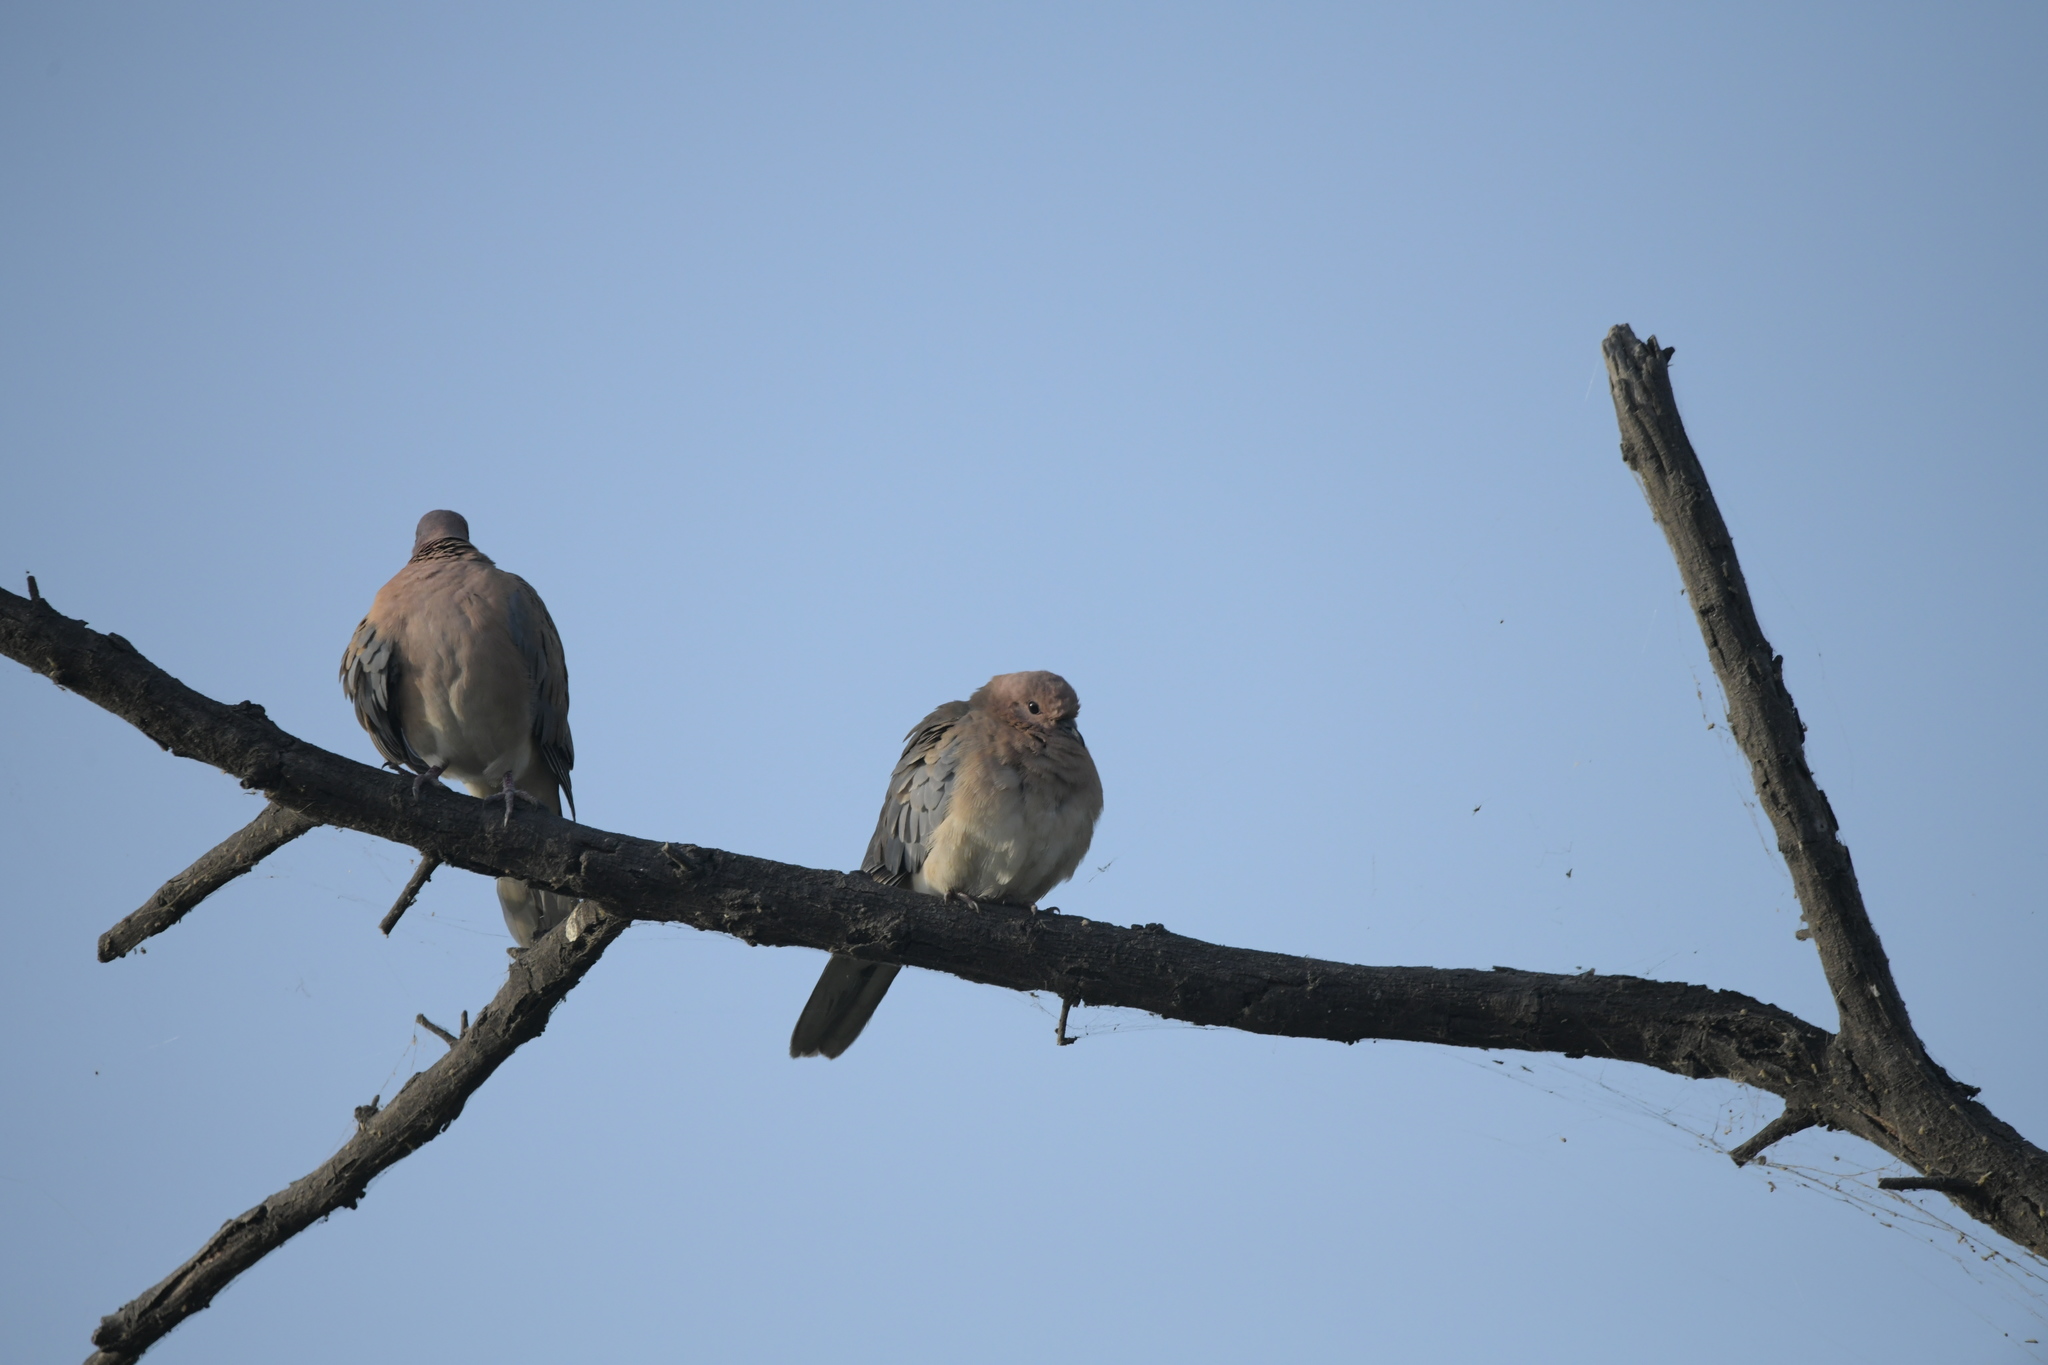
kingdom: Animalia
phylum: Chordata
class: Aves
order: Columbiformes
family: Columbidae
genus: Spilopelia
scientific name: Spilopelia senegalensis
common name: Laughing dove
